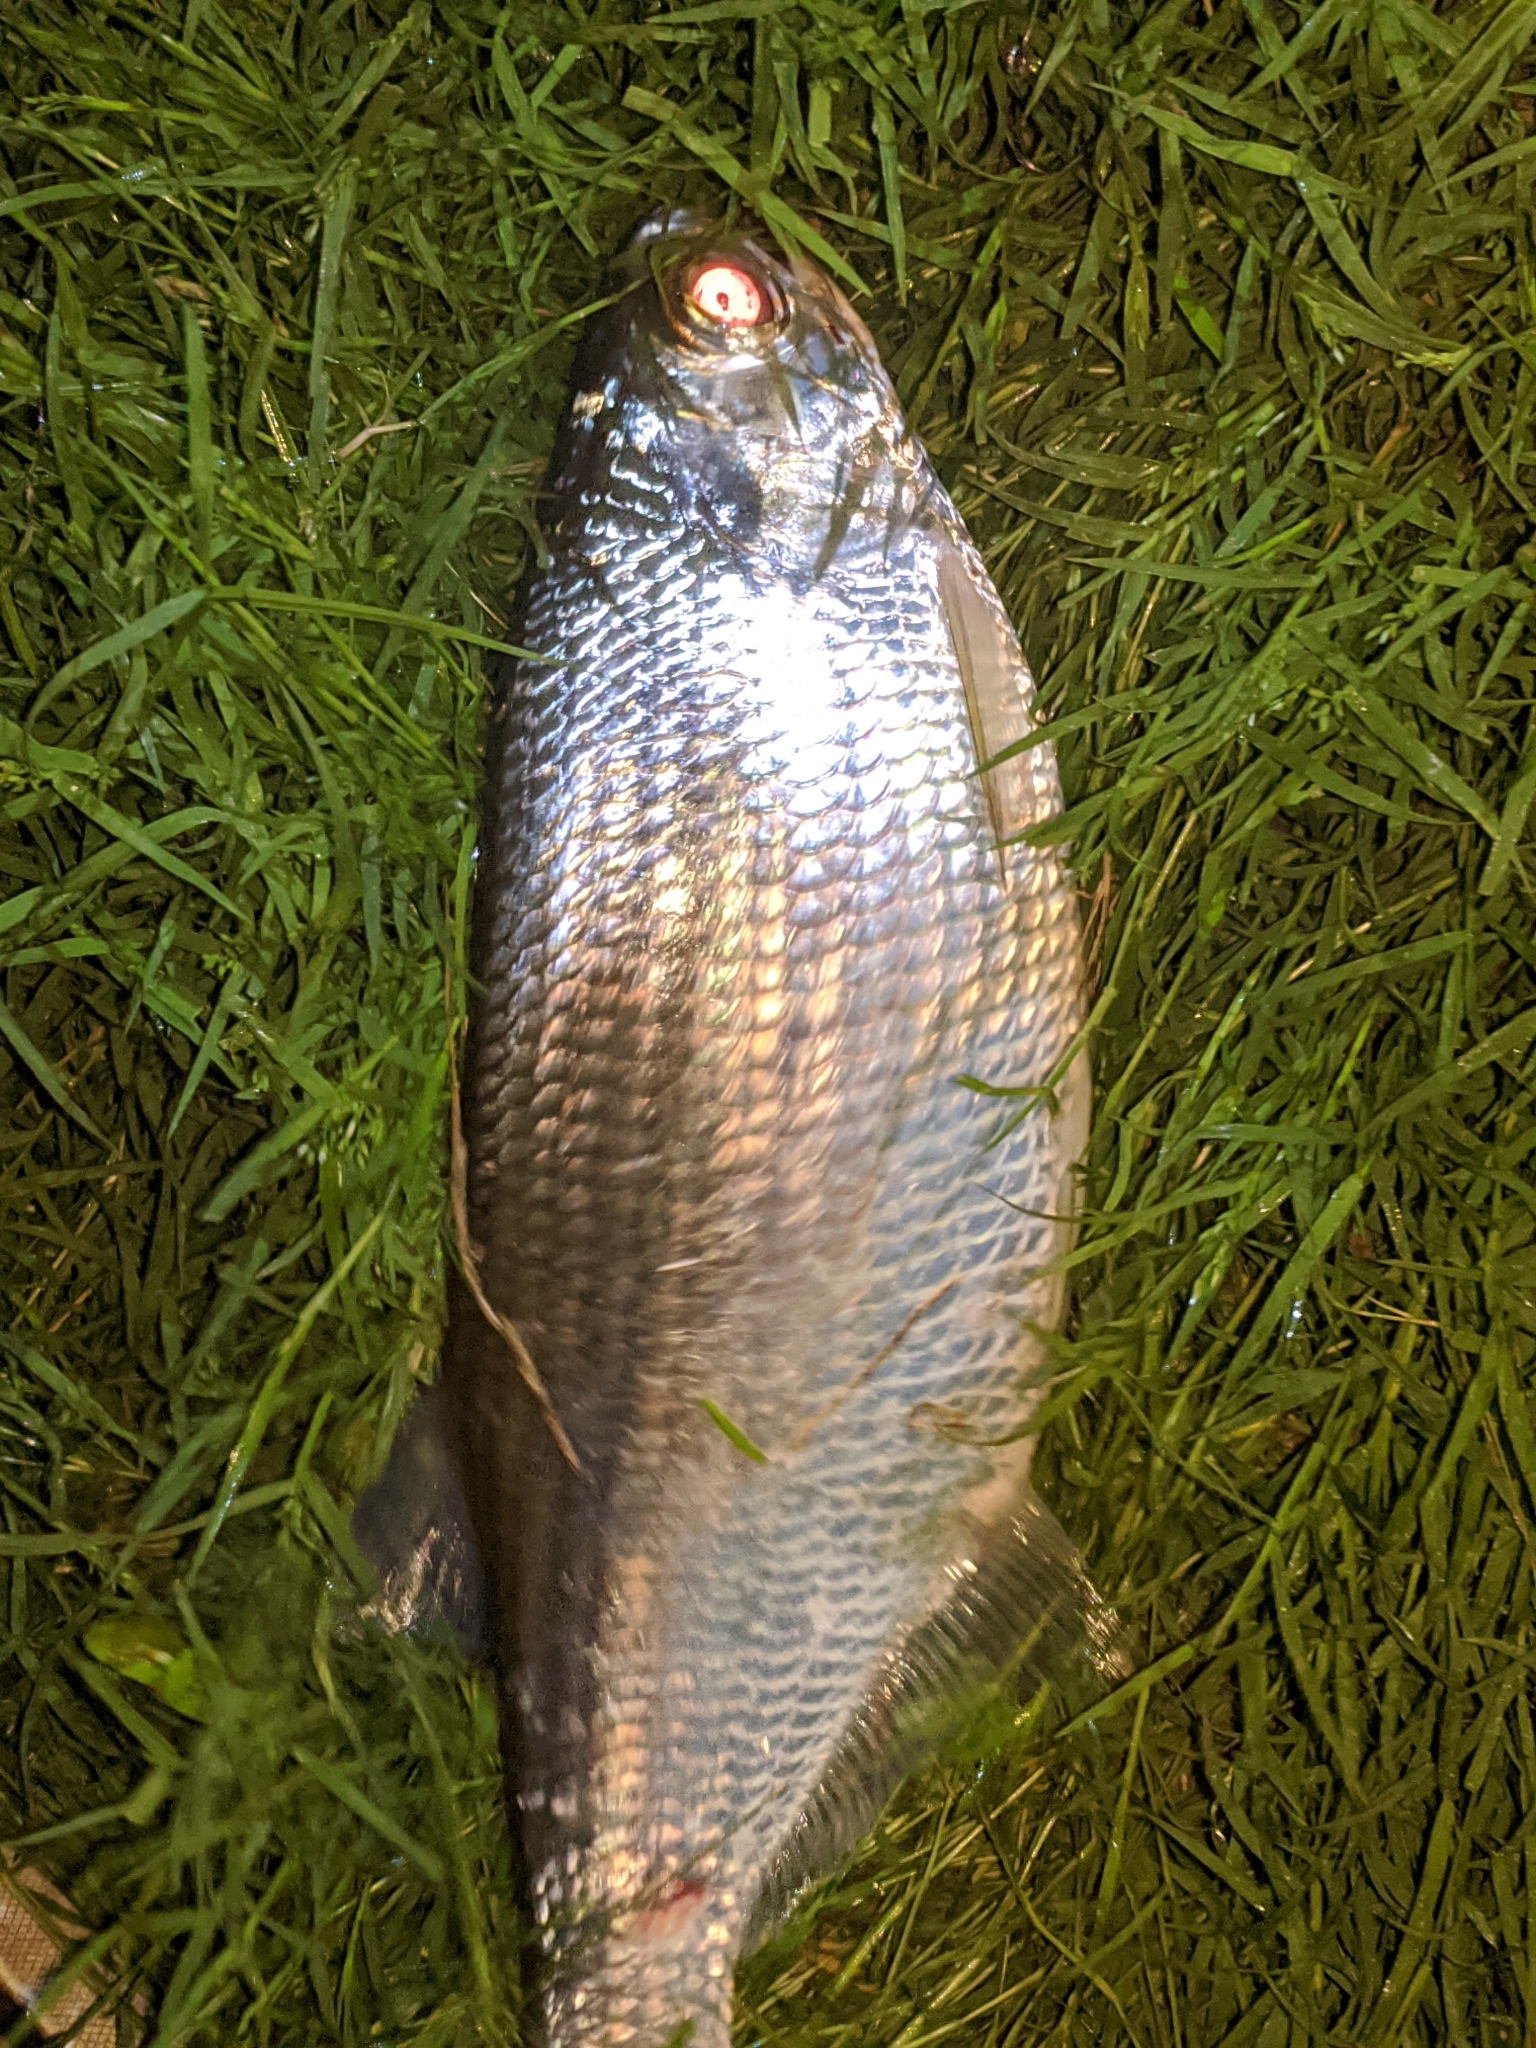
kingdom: Animalia
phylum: Chordata
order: Osteoglossiformes
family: Hiodontidae
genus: Hiodon
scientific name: Hiodon tergisus
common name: Mooneye
